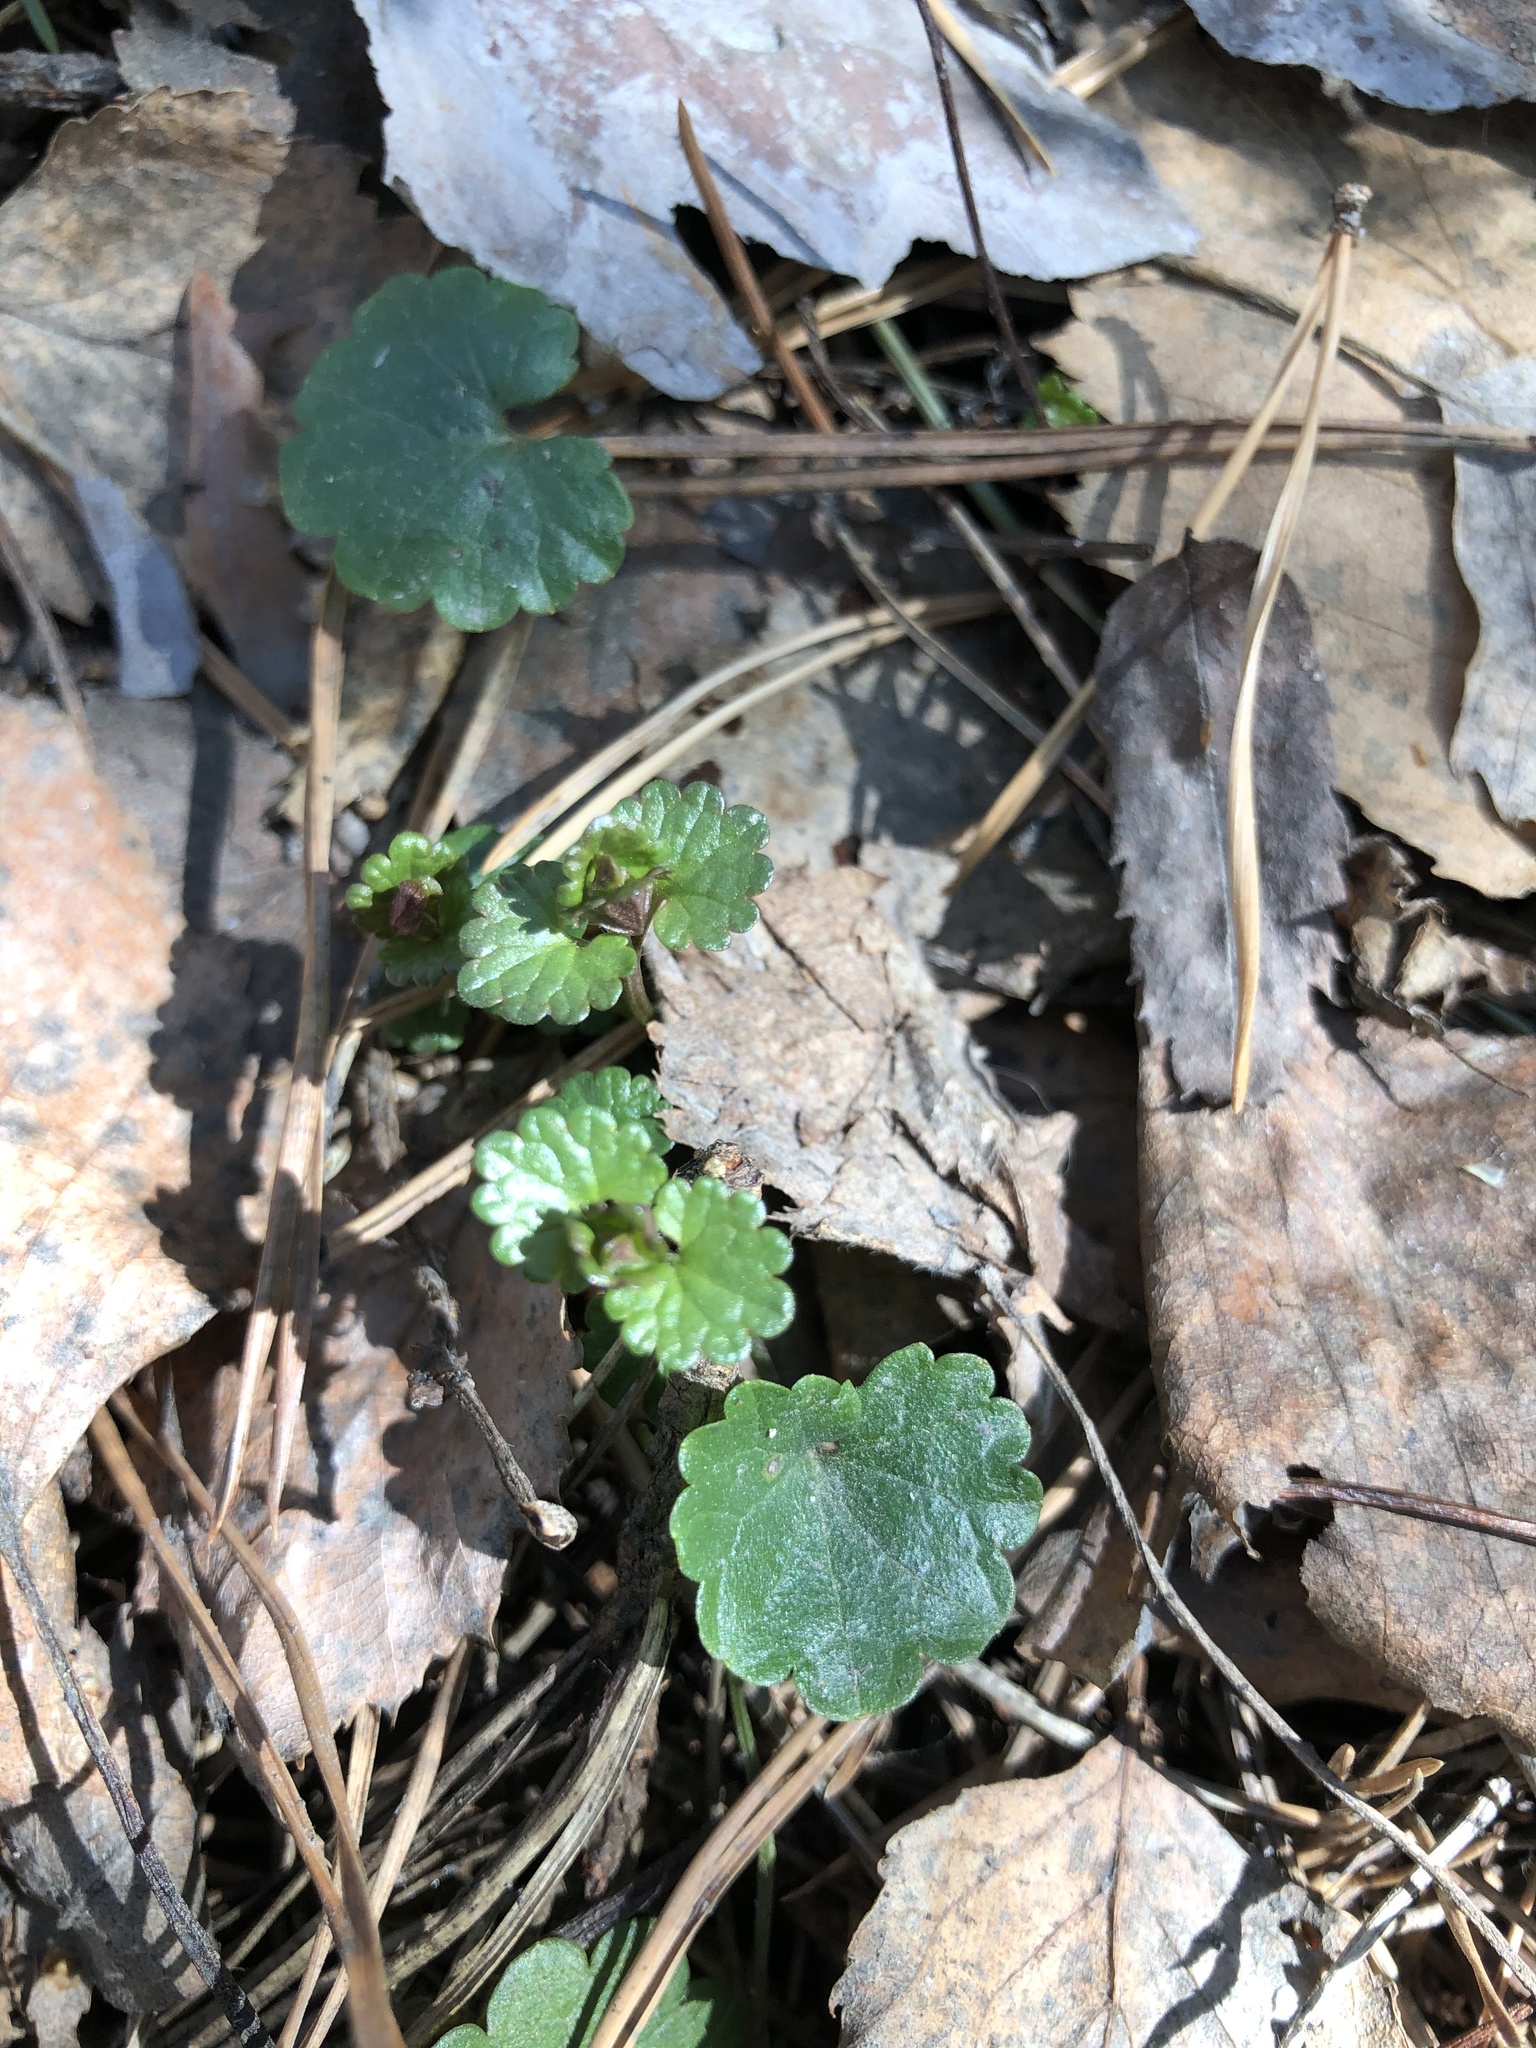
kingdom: Plantae
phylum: Tracheophyta
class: Magnoliopsida
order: Lamiales
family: Lamiaceae
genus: Glechoma
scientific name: Glechoma hederacea
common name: Ground ivy
